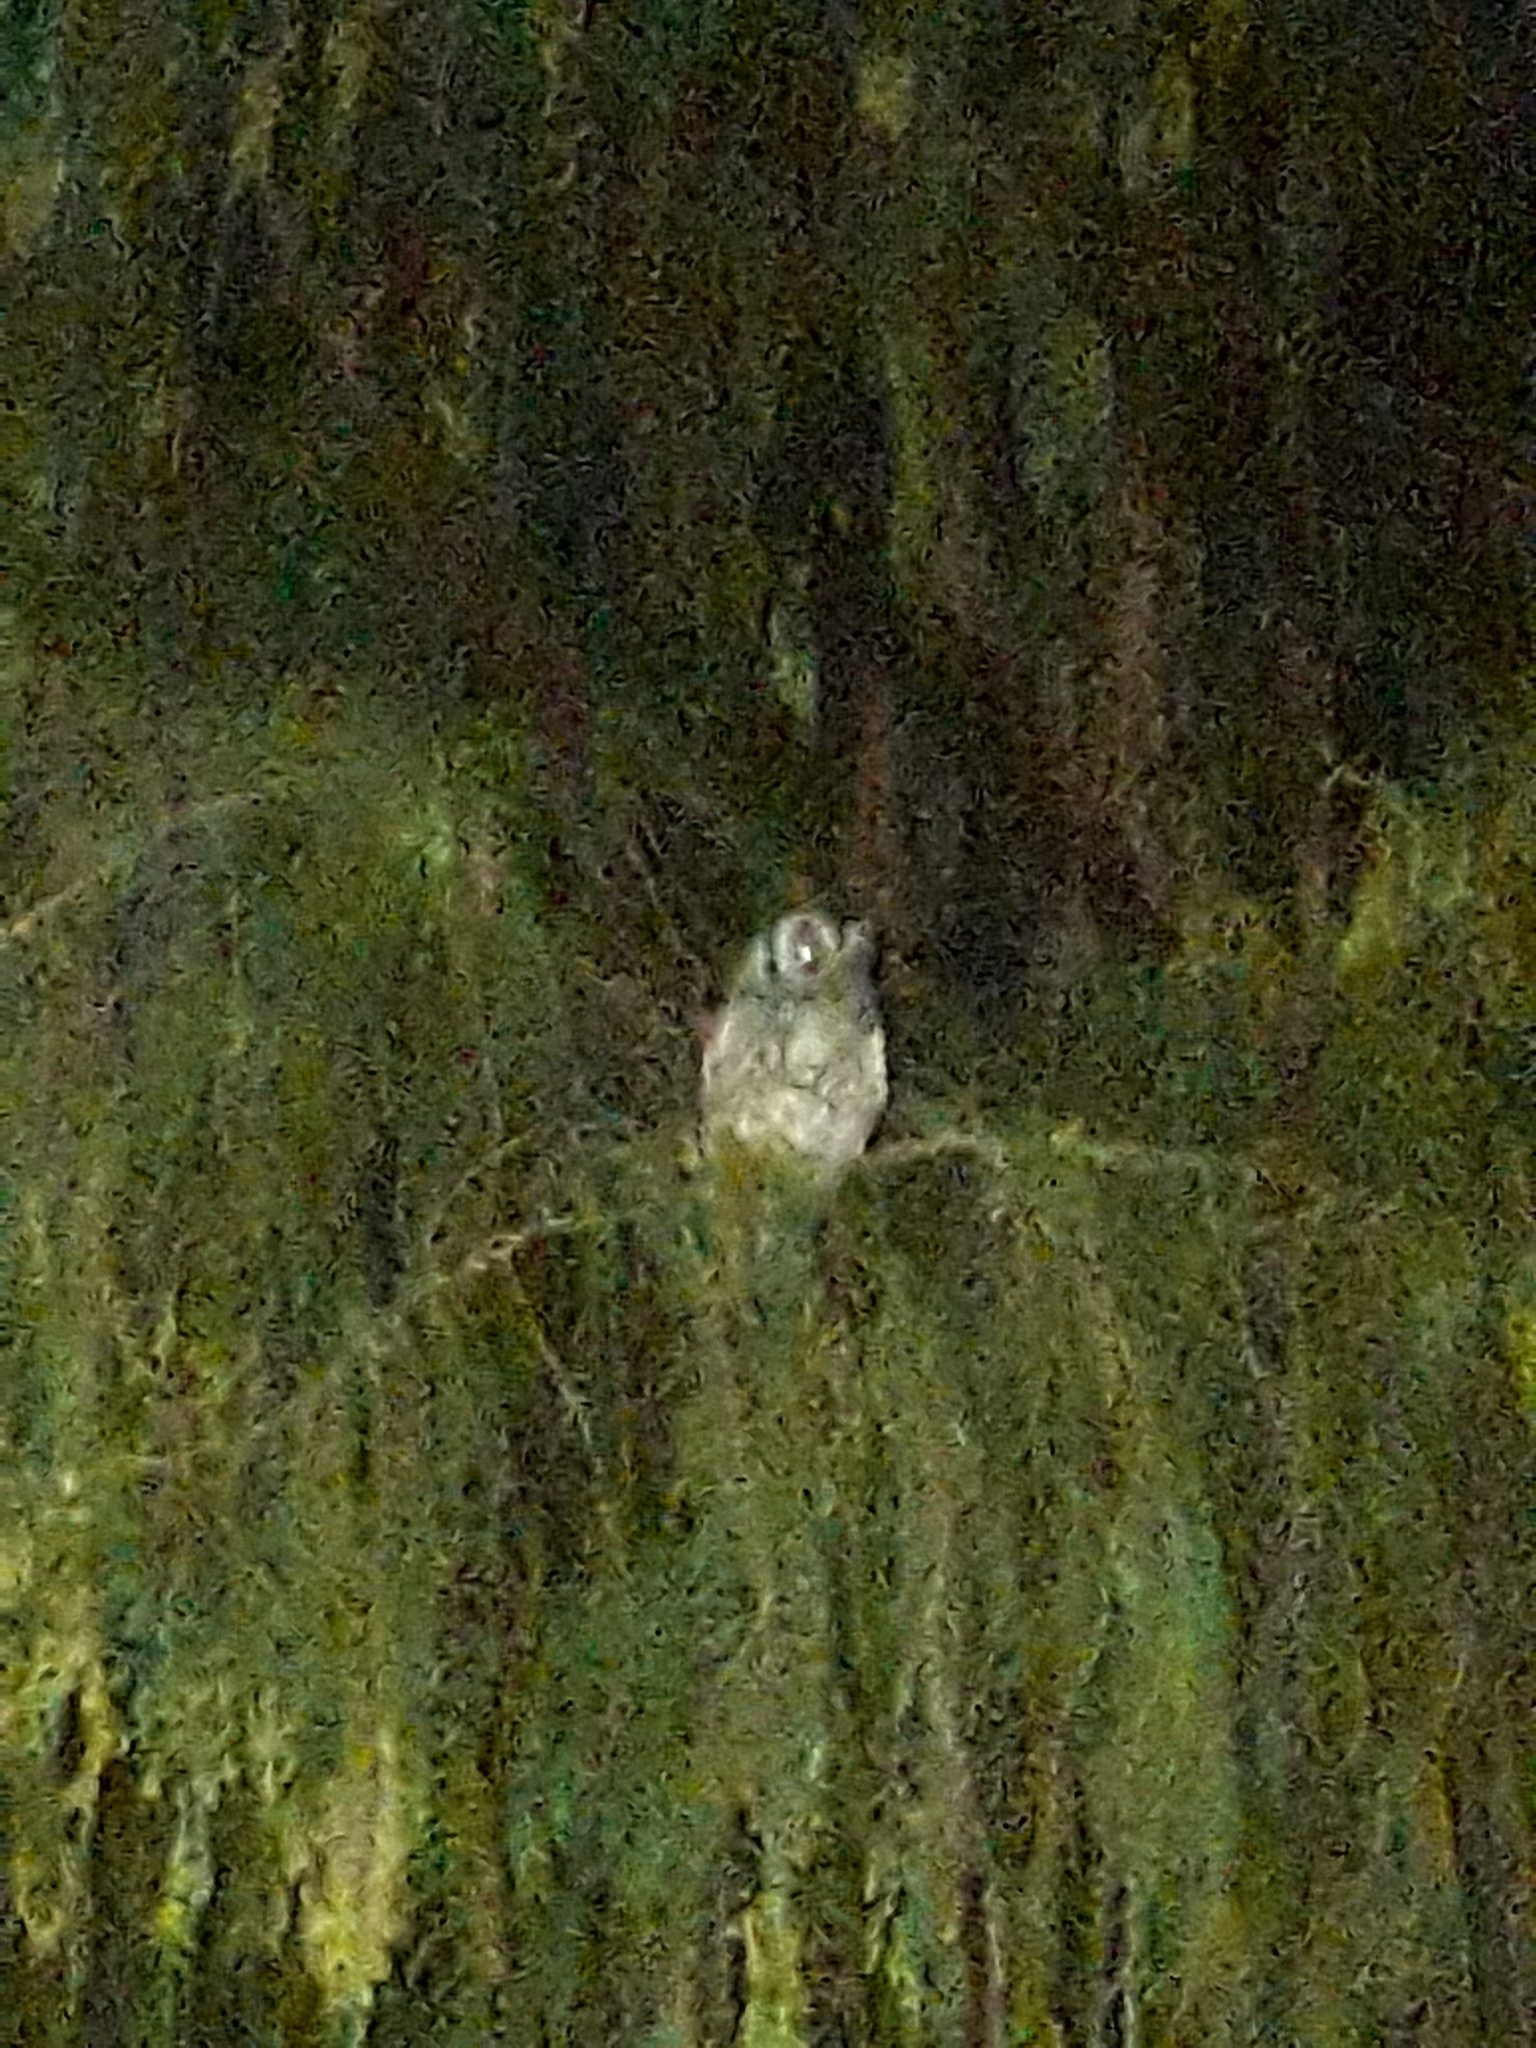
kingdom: Animalia
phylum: Chordata
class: Aves
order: Strigiformes
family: Strigidae
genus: Megascops
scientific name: Megascops choliba
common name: Tropical screech-owl
